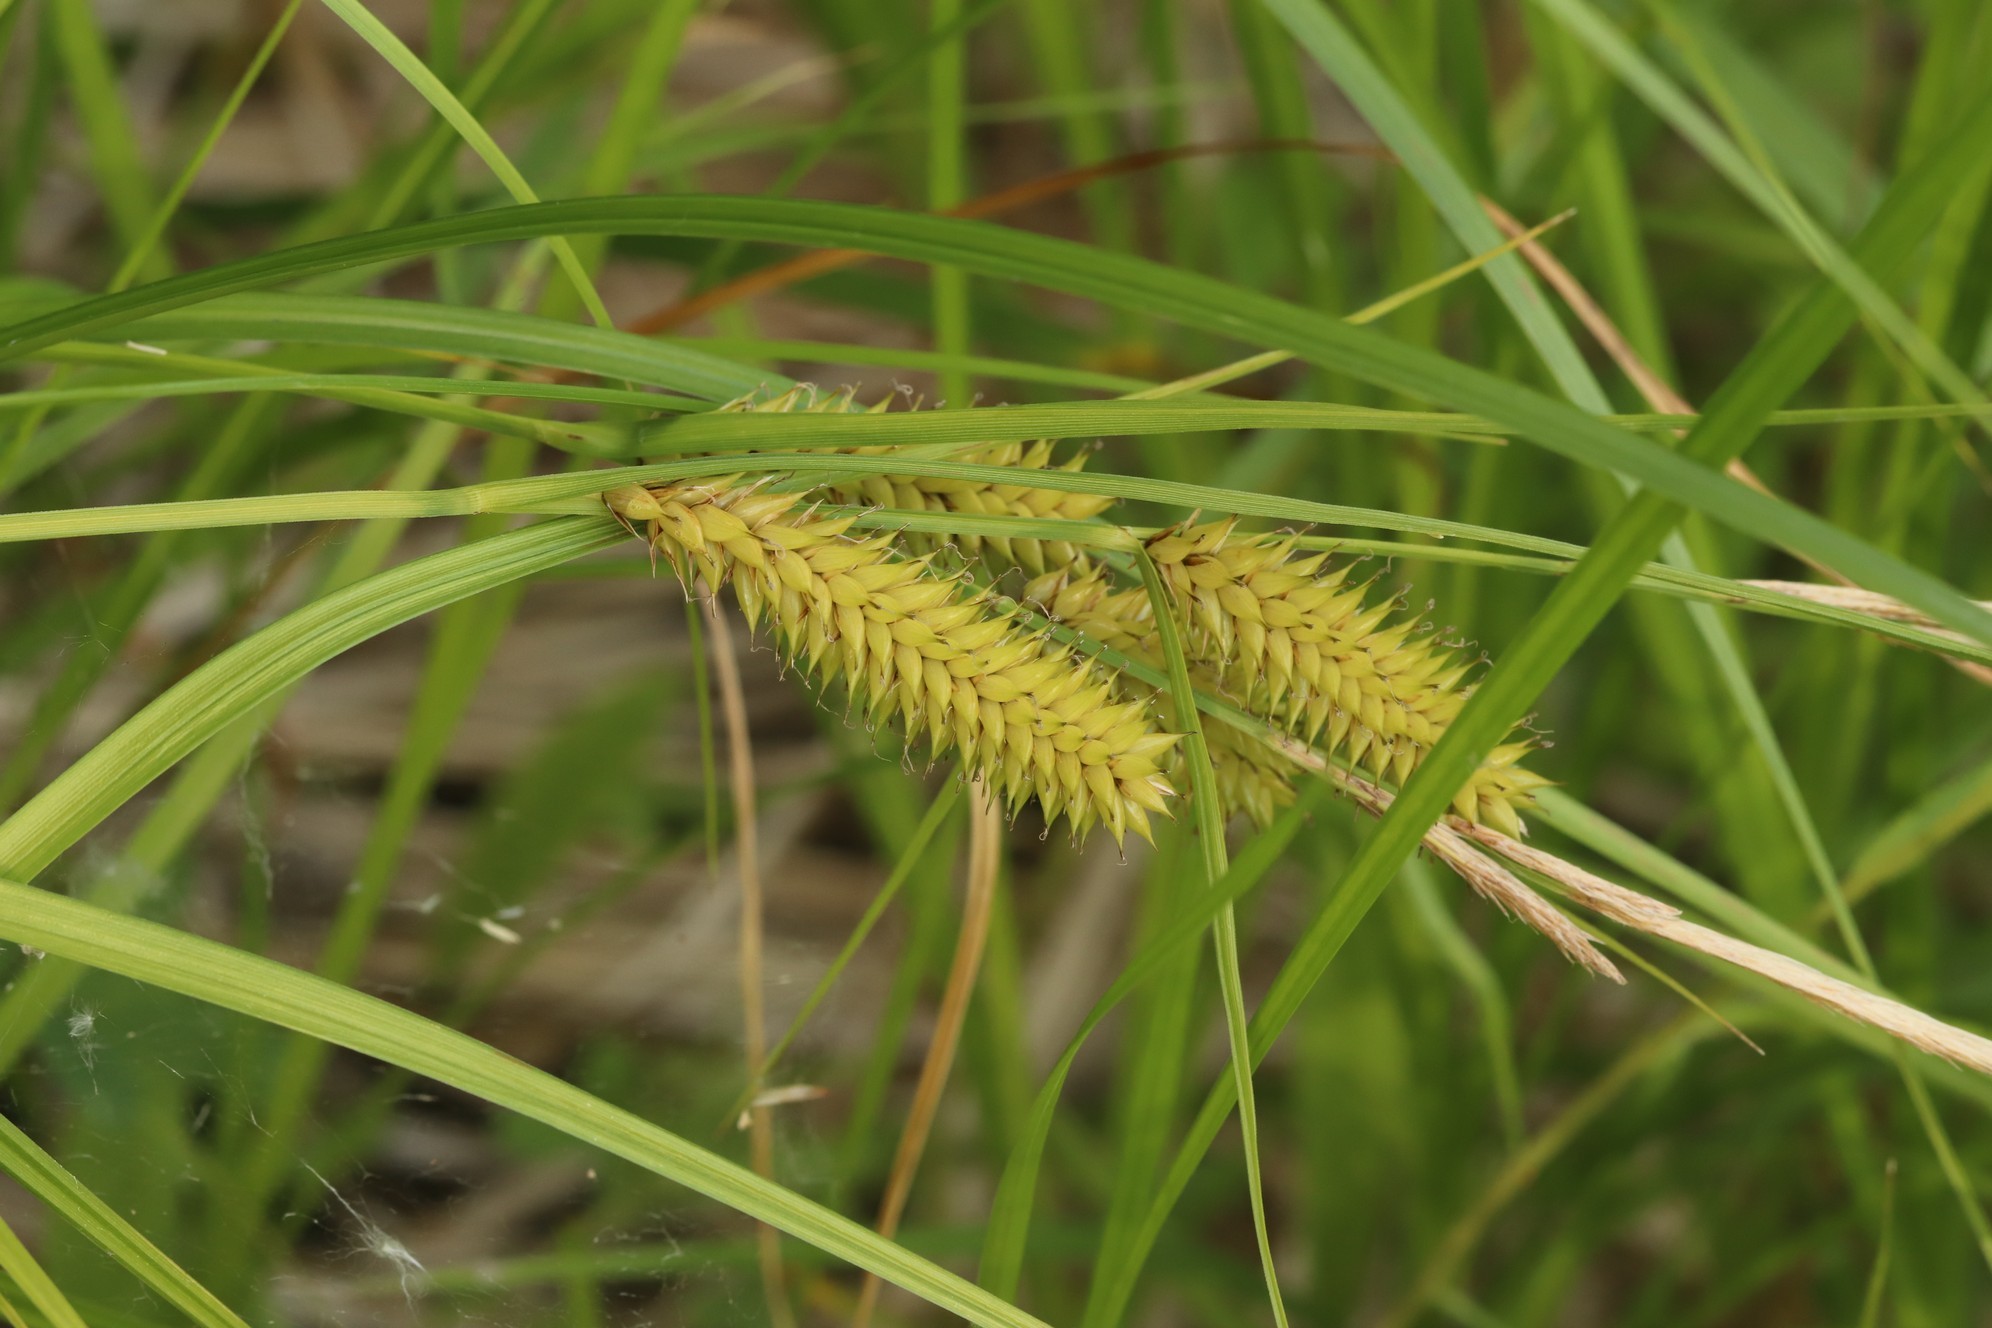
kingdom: Plantae
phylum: Tracheophyta
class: Liliopsida
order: Poales
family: Cyperaceae
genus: Carex
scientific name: Carex vesicaria
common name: Bladder-sedge
